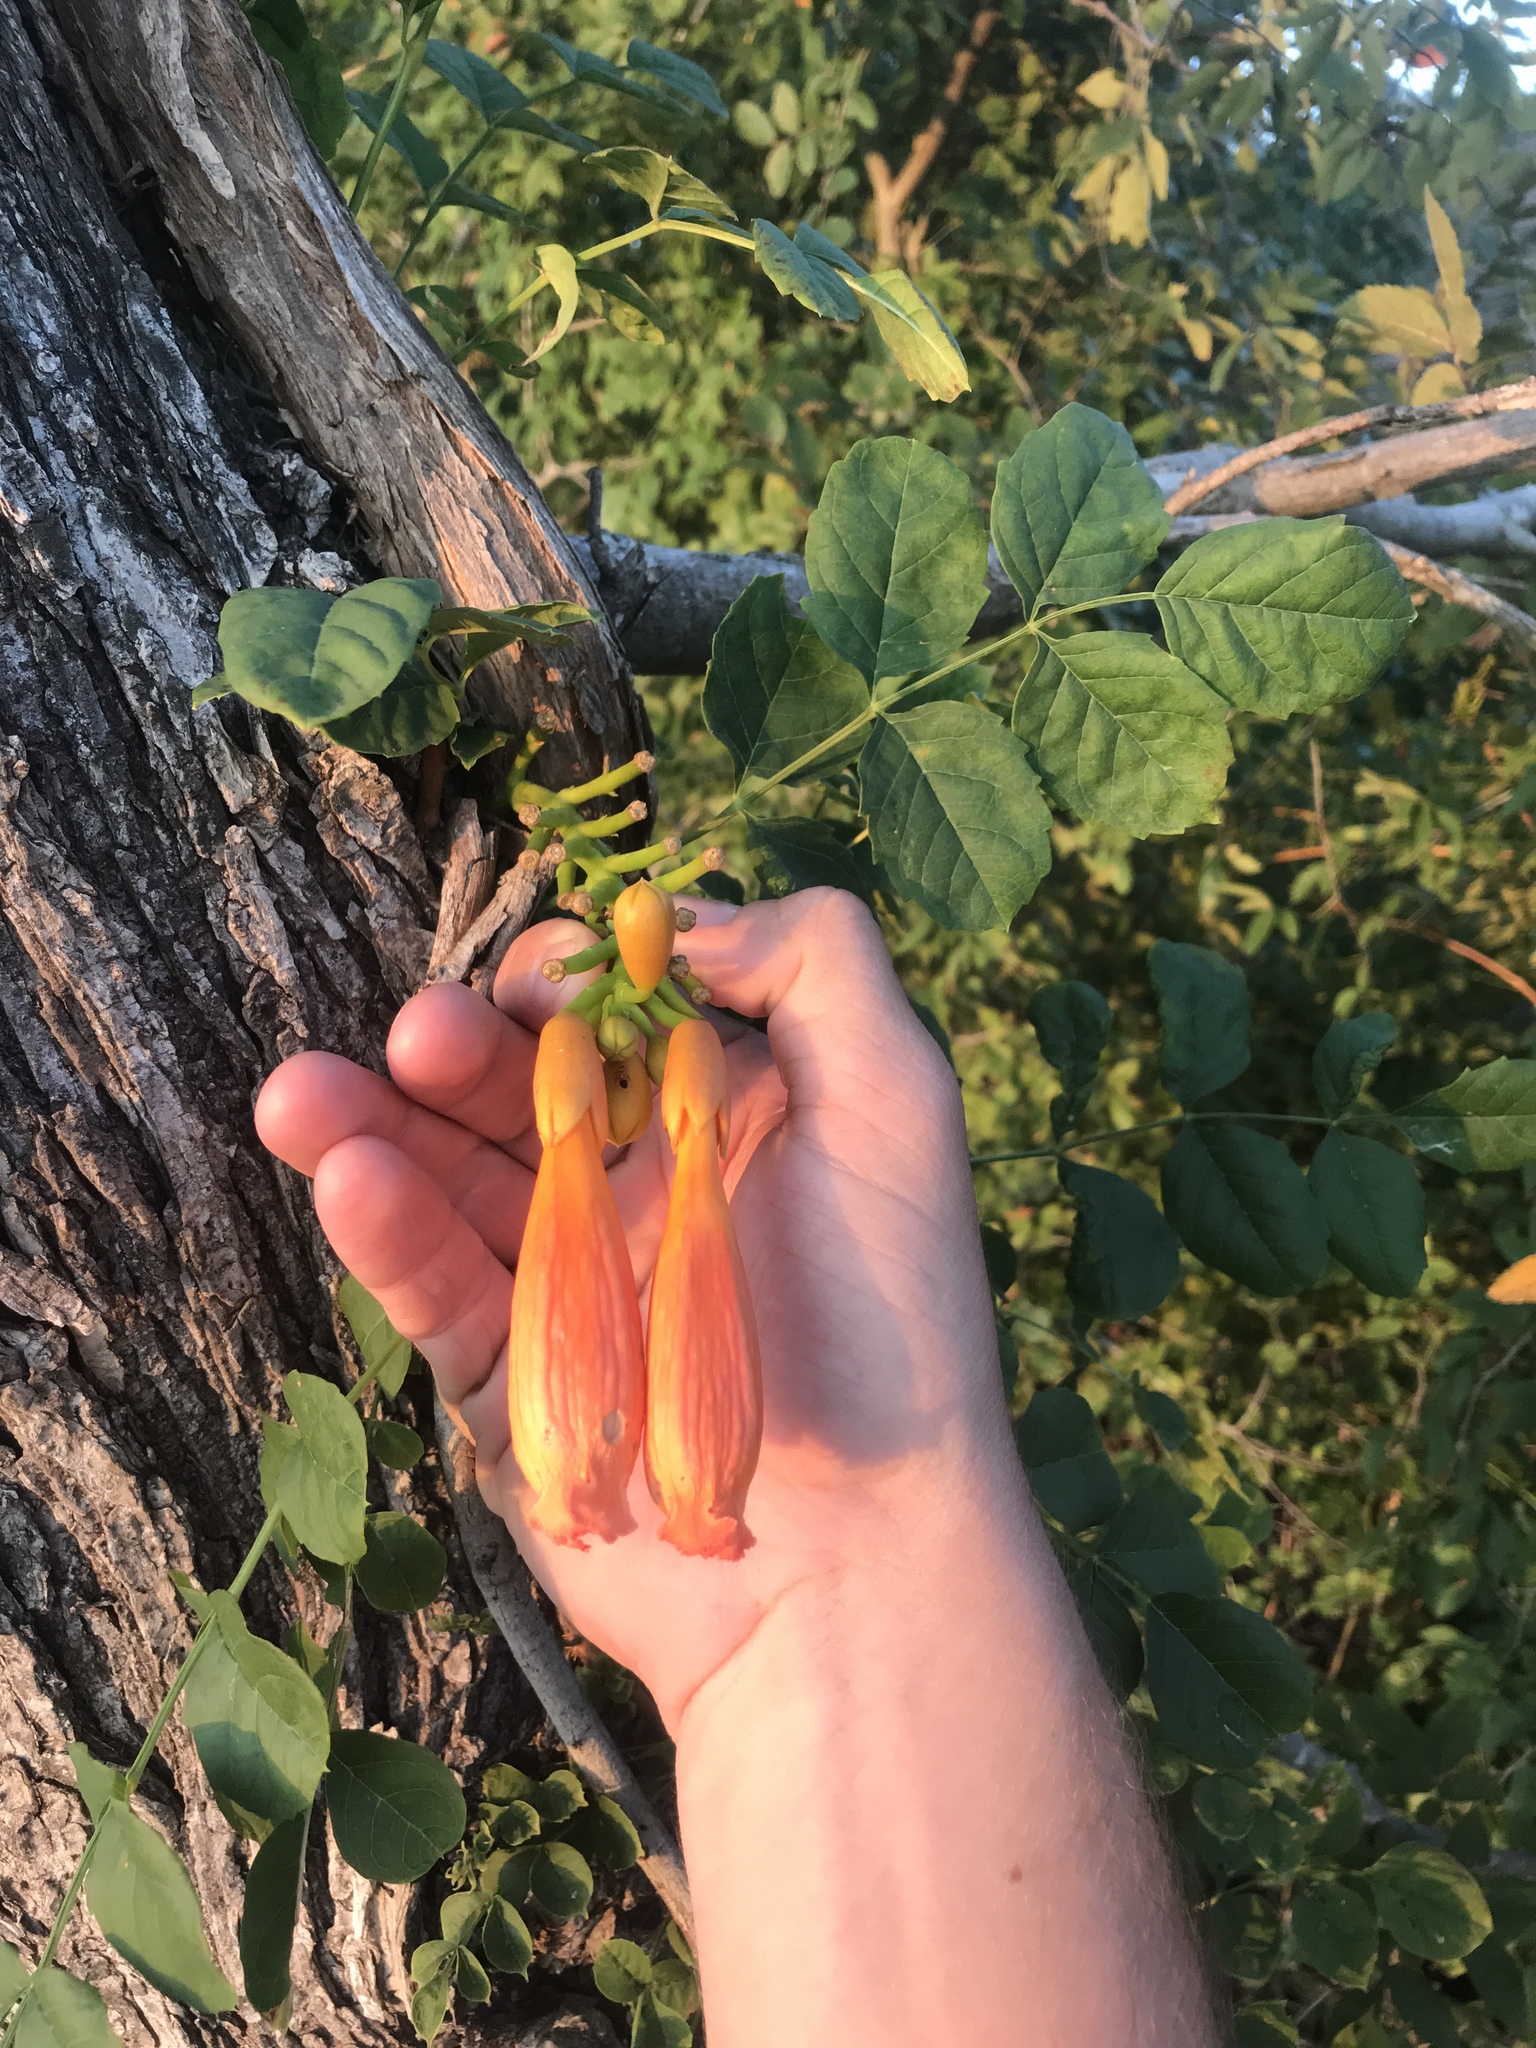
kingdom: Plantae
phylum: Tracheophyta
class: Magnoliopsida
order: Lamiales
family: Bignoniaceae
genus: Campsis
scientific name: Campsis radicans
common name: Trumpet-creeper
